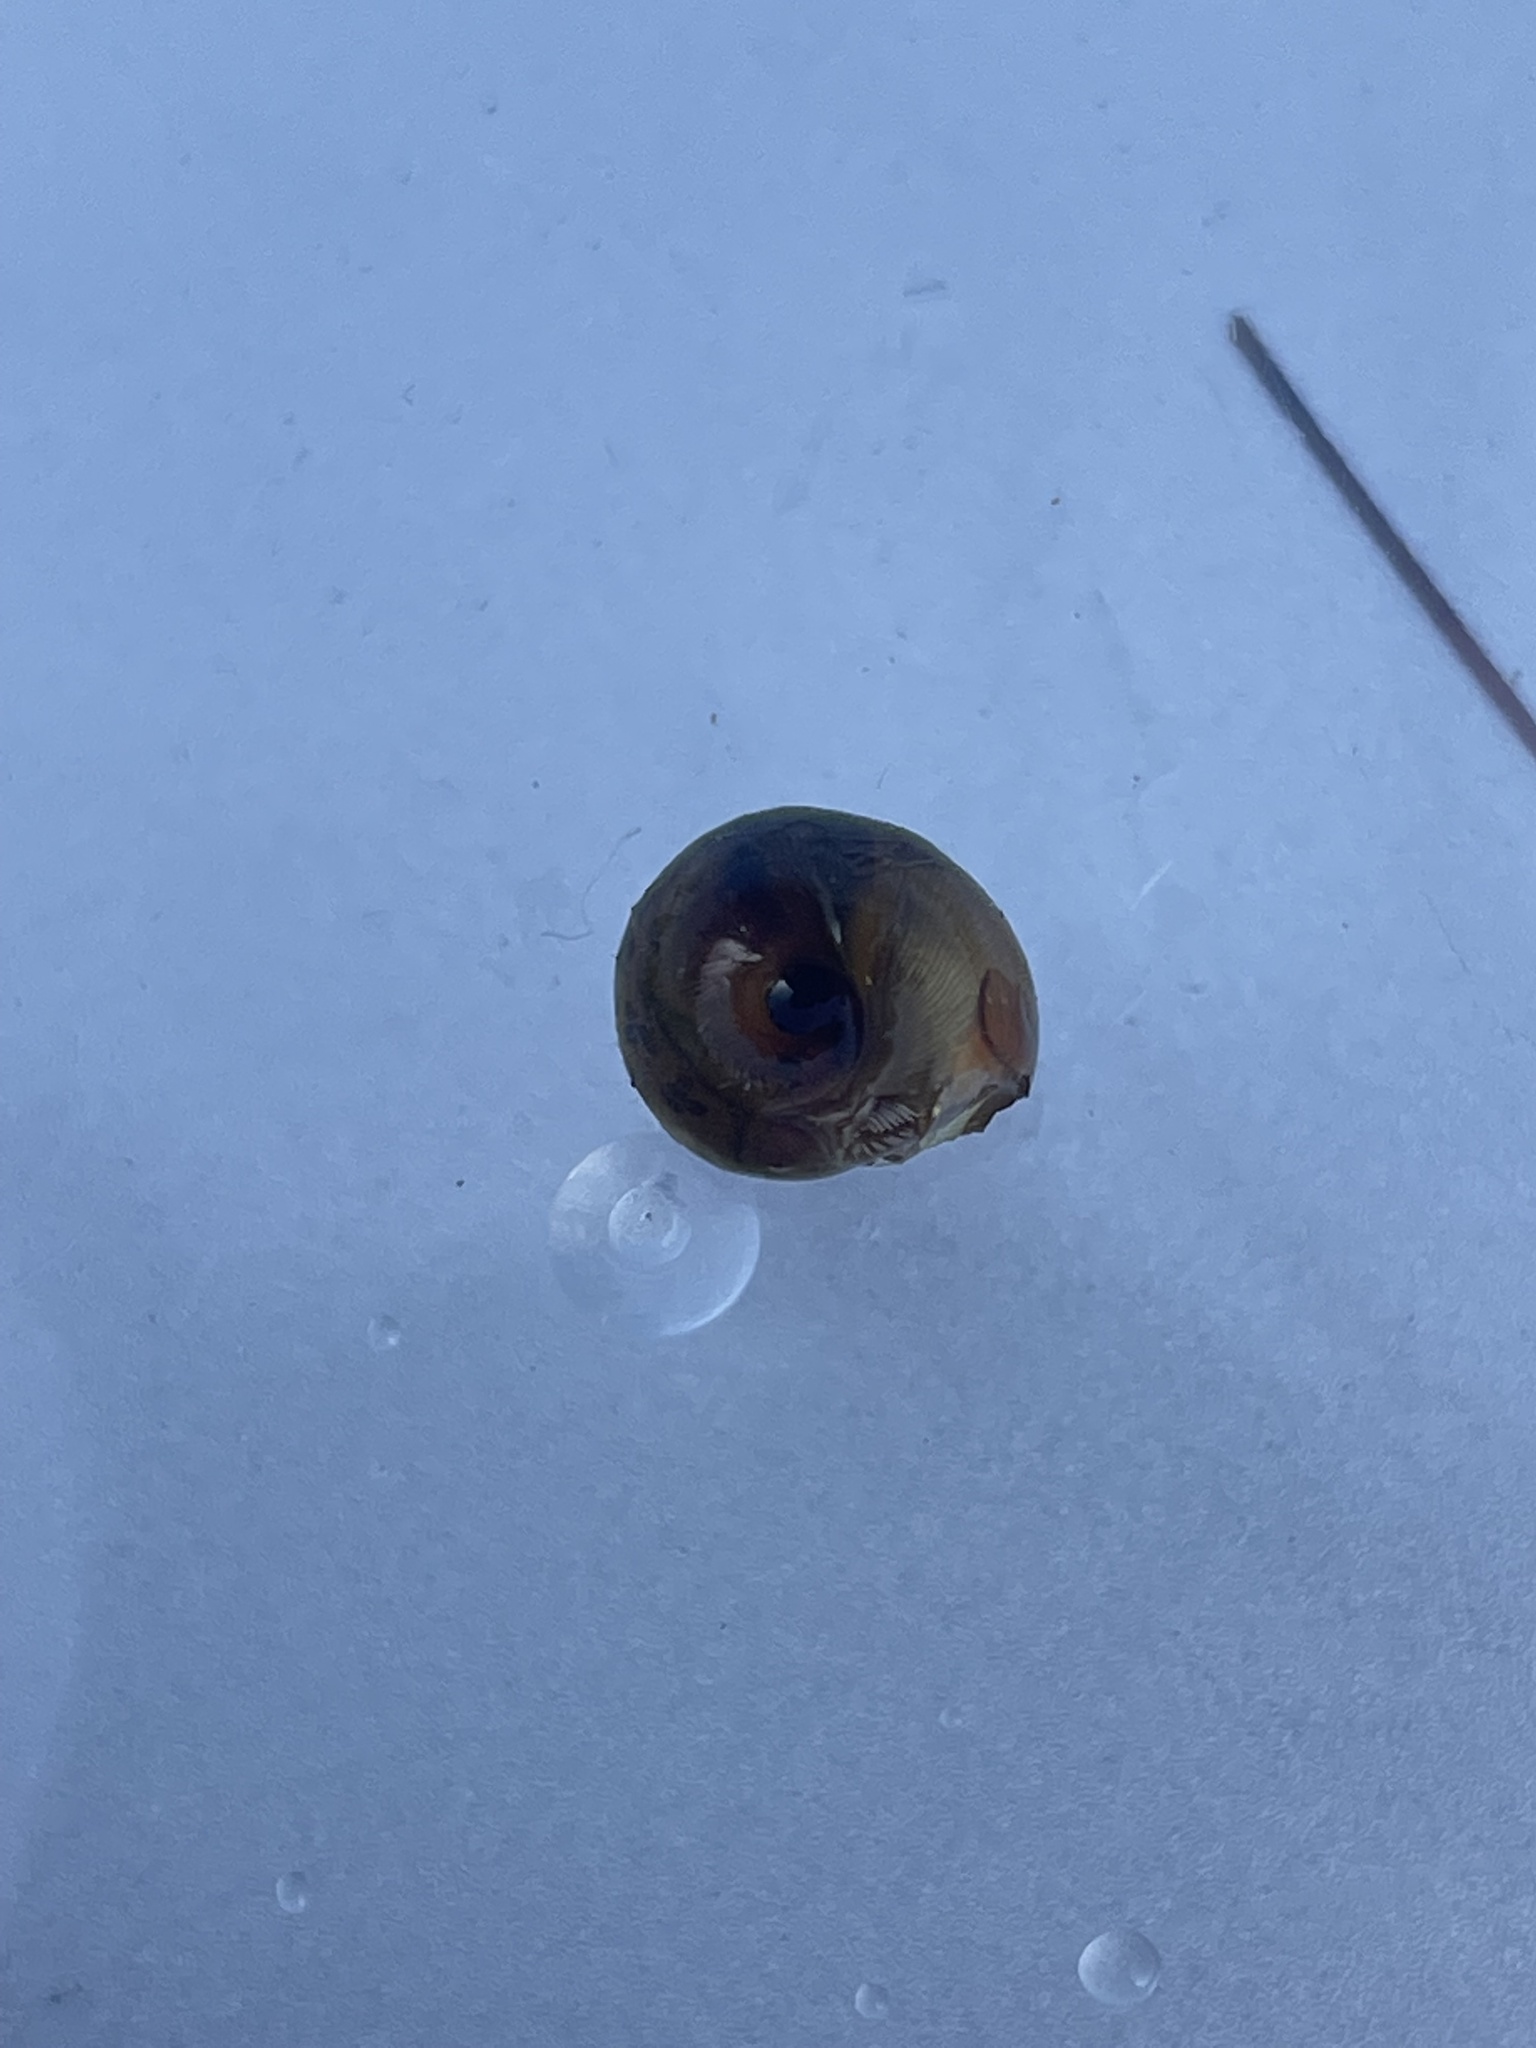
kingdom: Animalia
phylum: Mollusca
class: Gastropoda
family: Planorbidae
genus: Planorbella
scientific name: Planorbella trivolvis
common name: Marsh rams-horn
